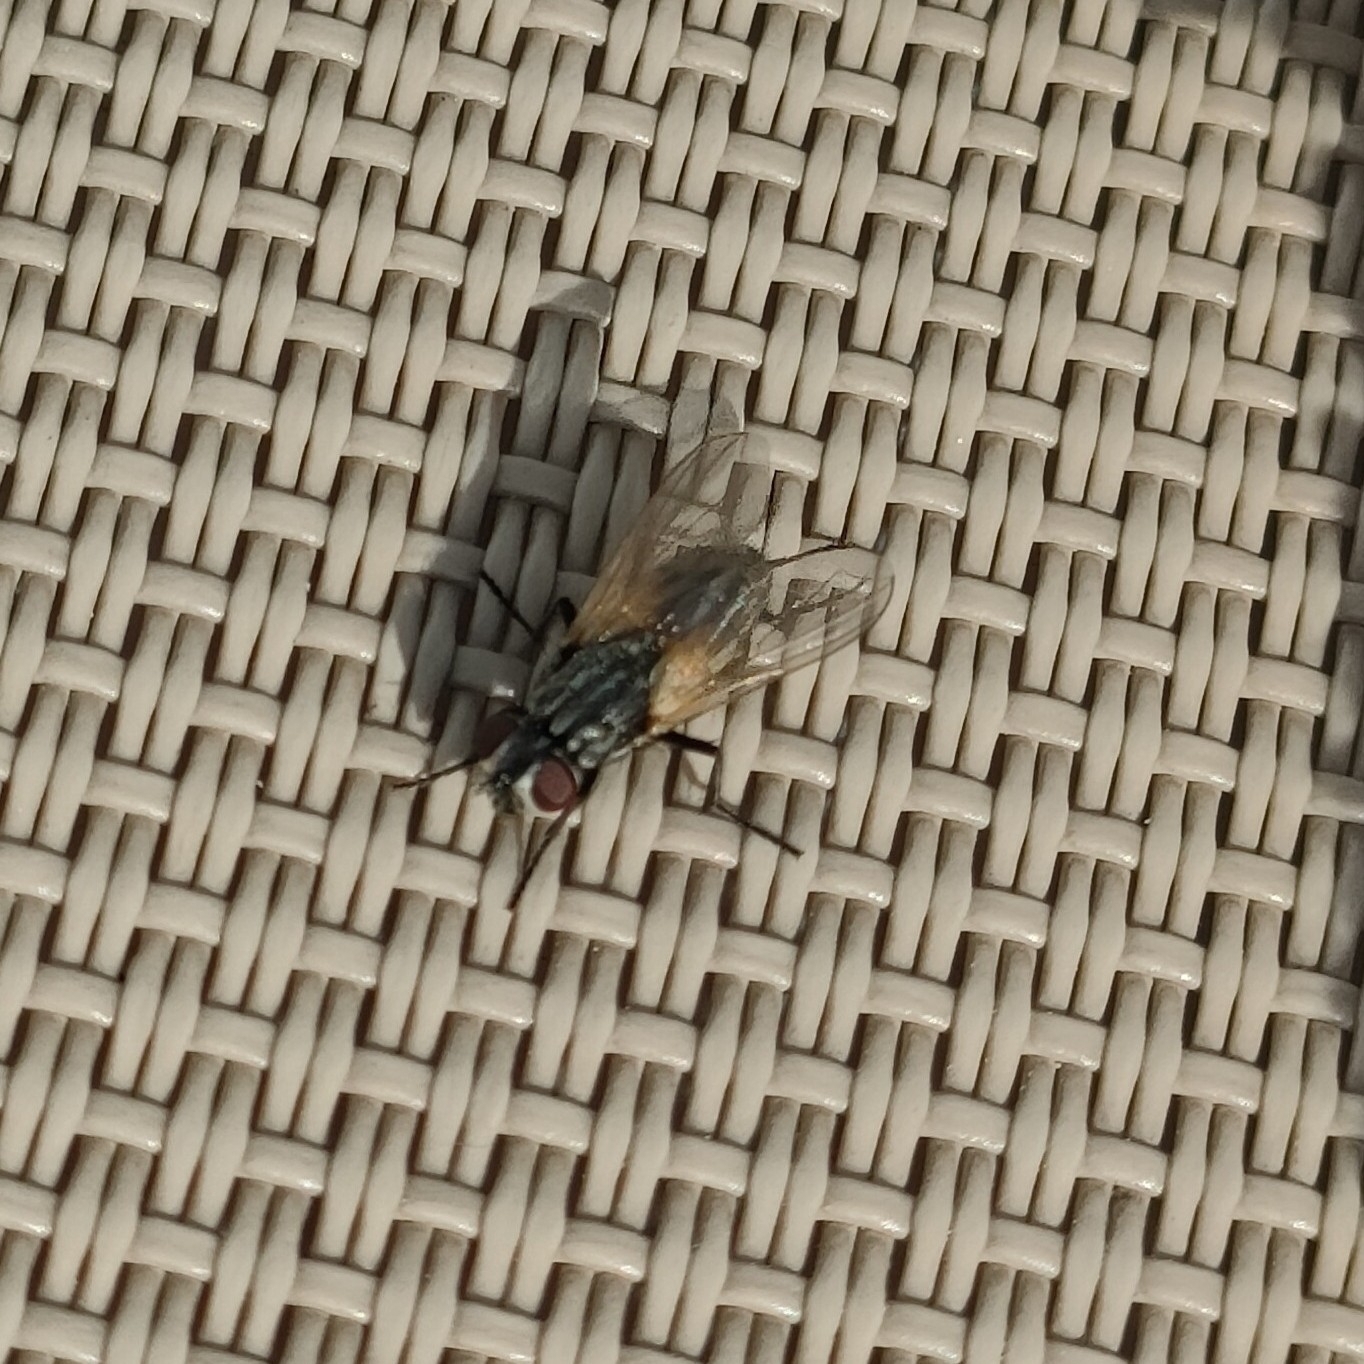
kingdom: Animalia
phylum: Arthropoda
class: Insecta
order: Diptera
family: Muscidae
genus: Stomoxys
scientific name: Stomoxys calcitrans
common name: Stable fly
